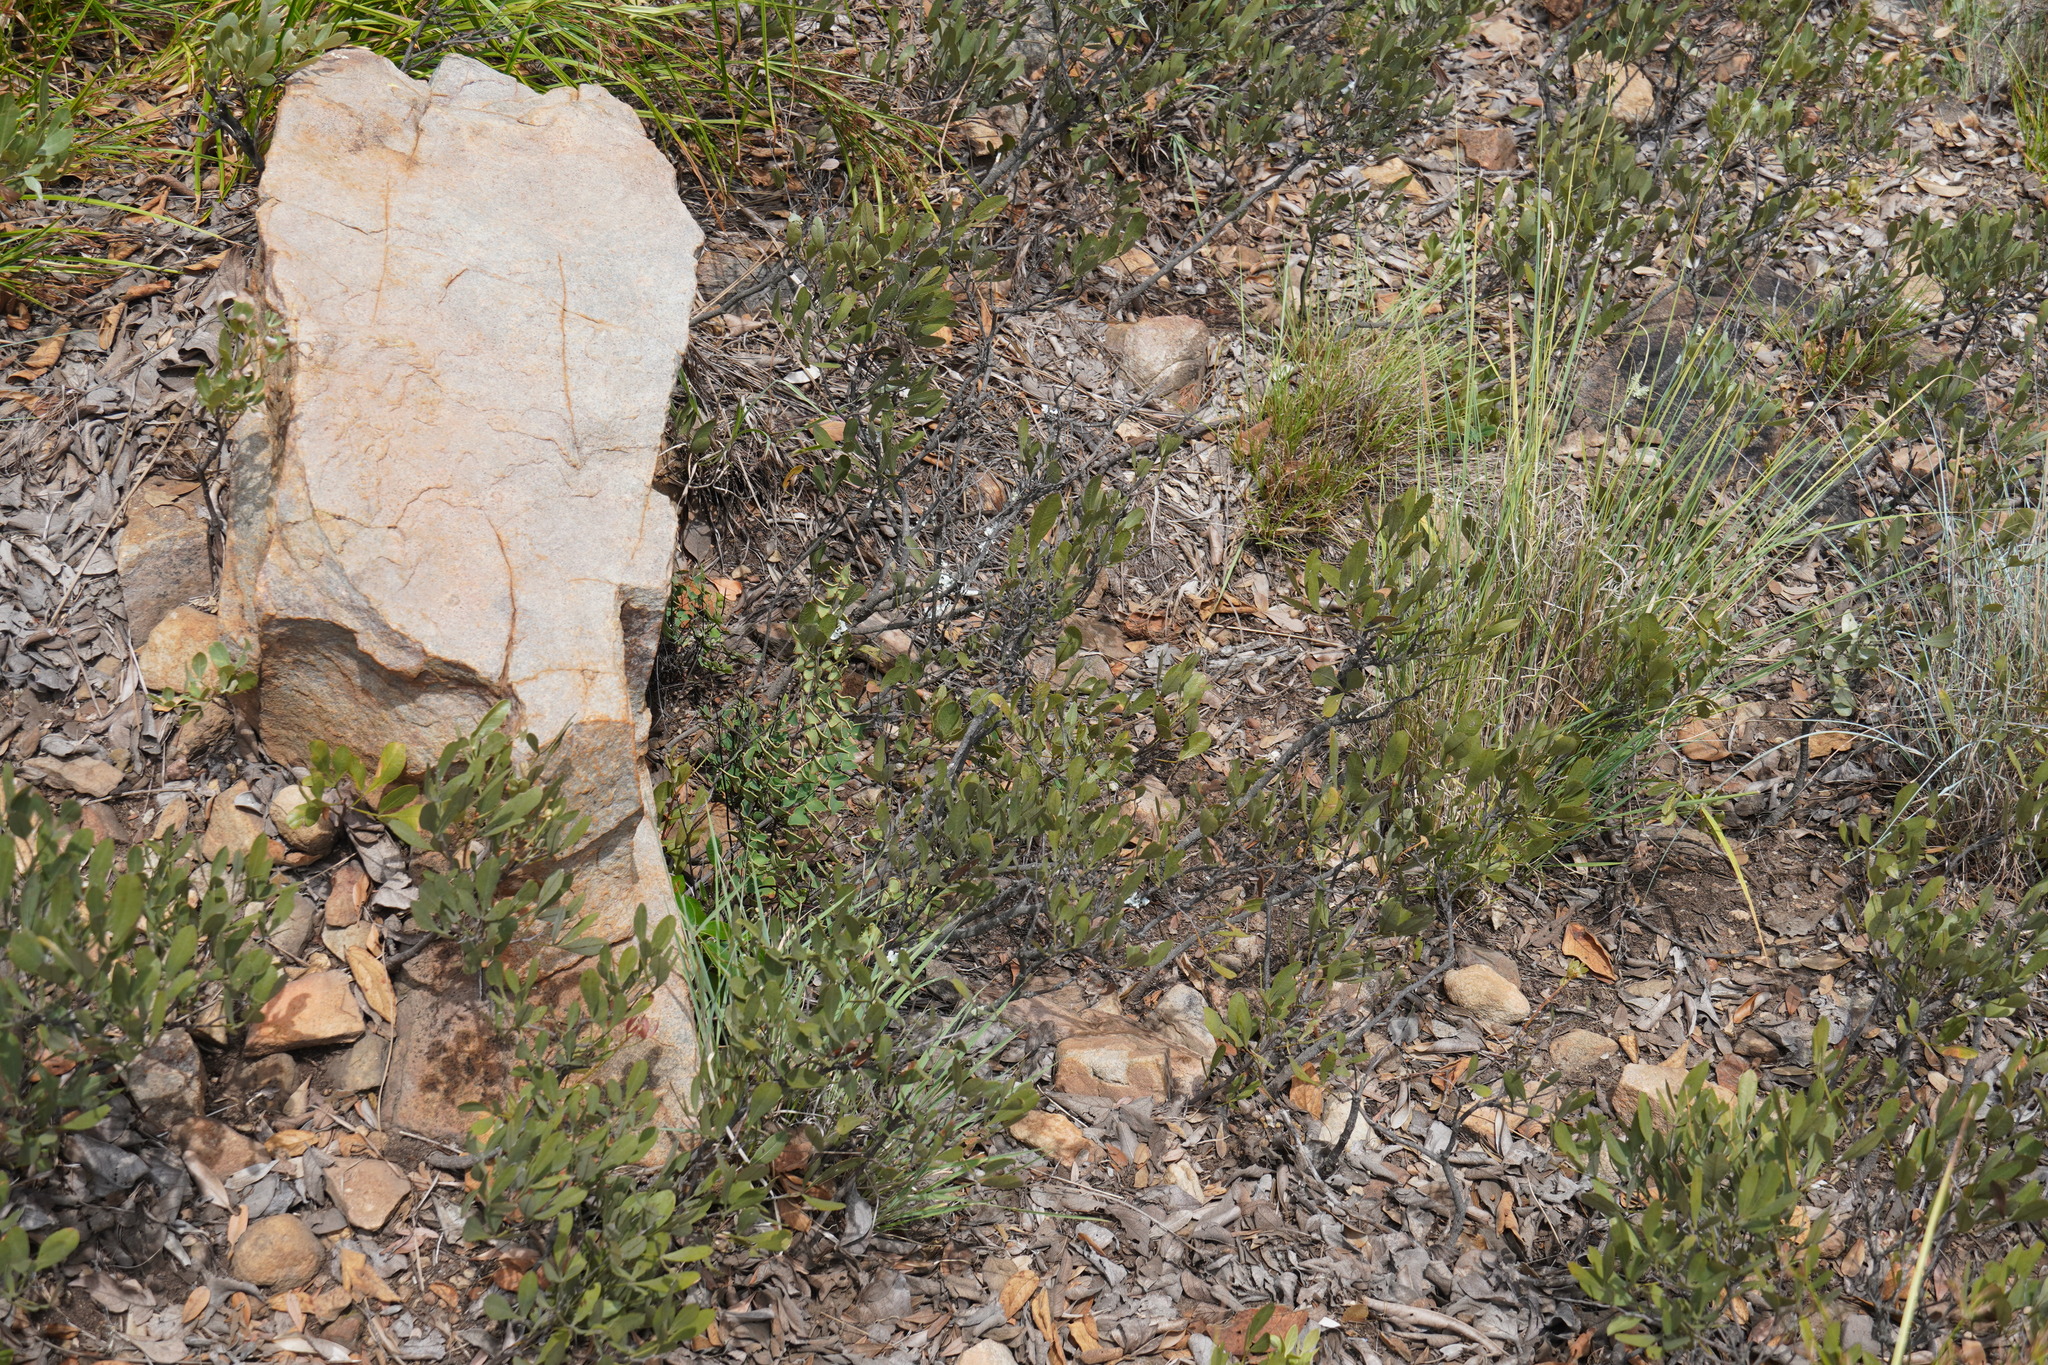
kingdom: Plantae
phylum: Tracheophyta
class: Magnoliopsida
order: Sapindales
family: Anacardiaceae
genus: Searsia
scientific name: Searsia magalismontana
